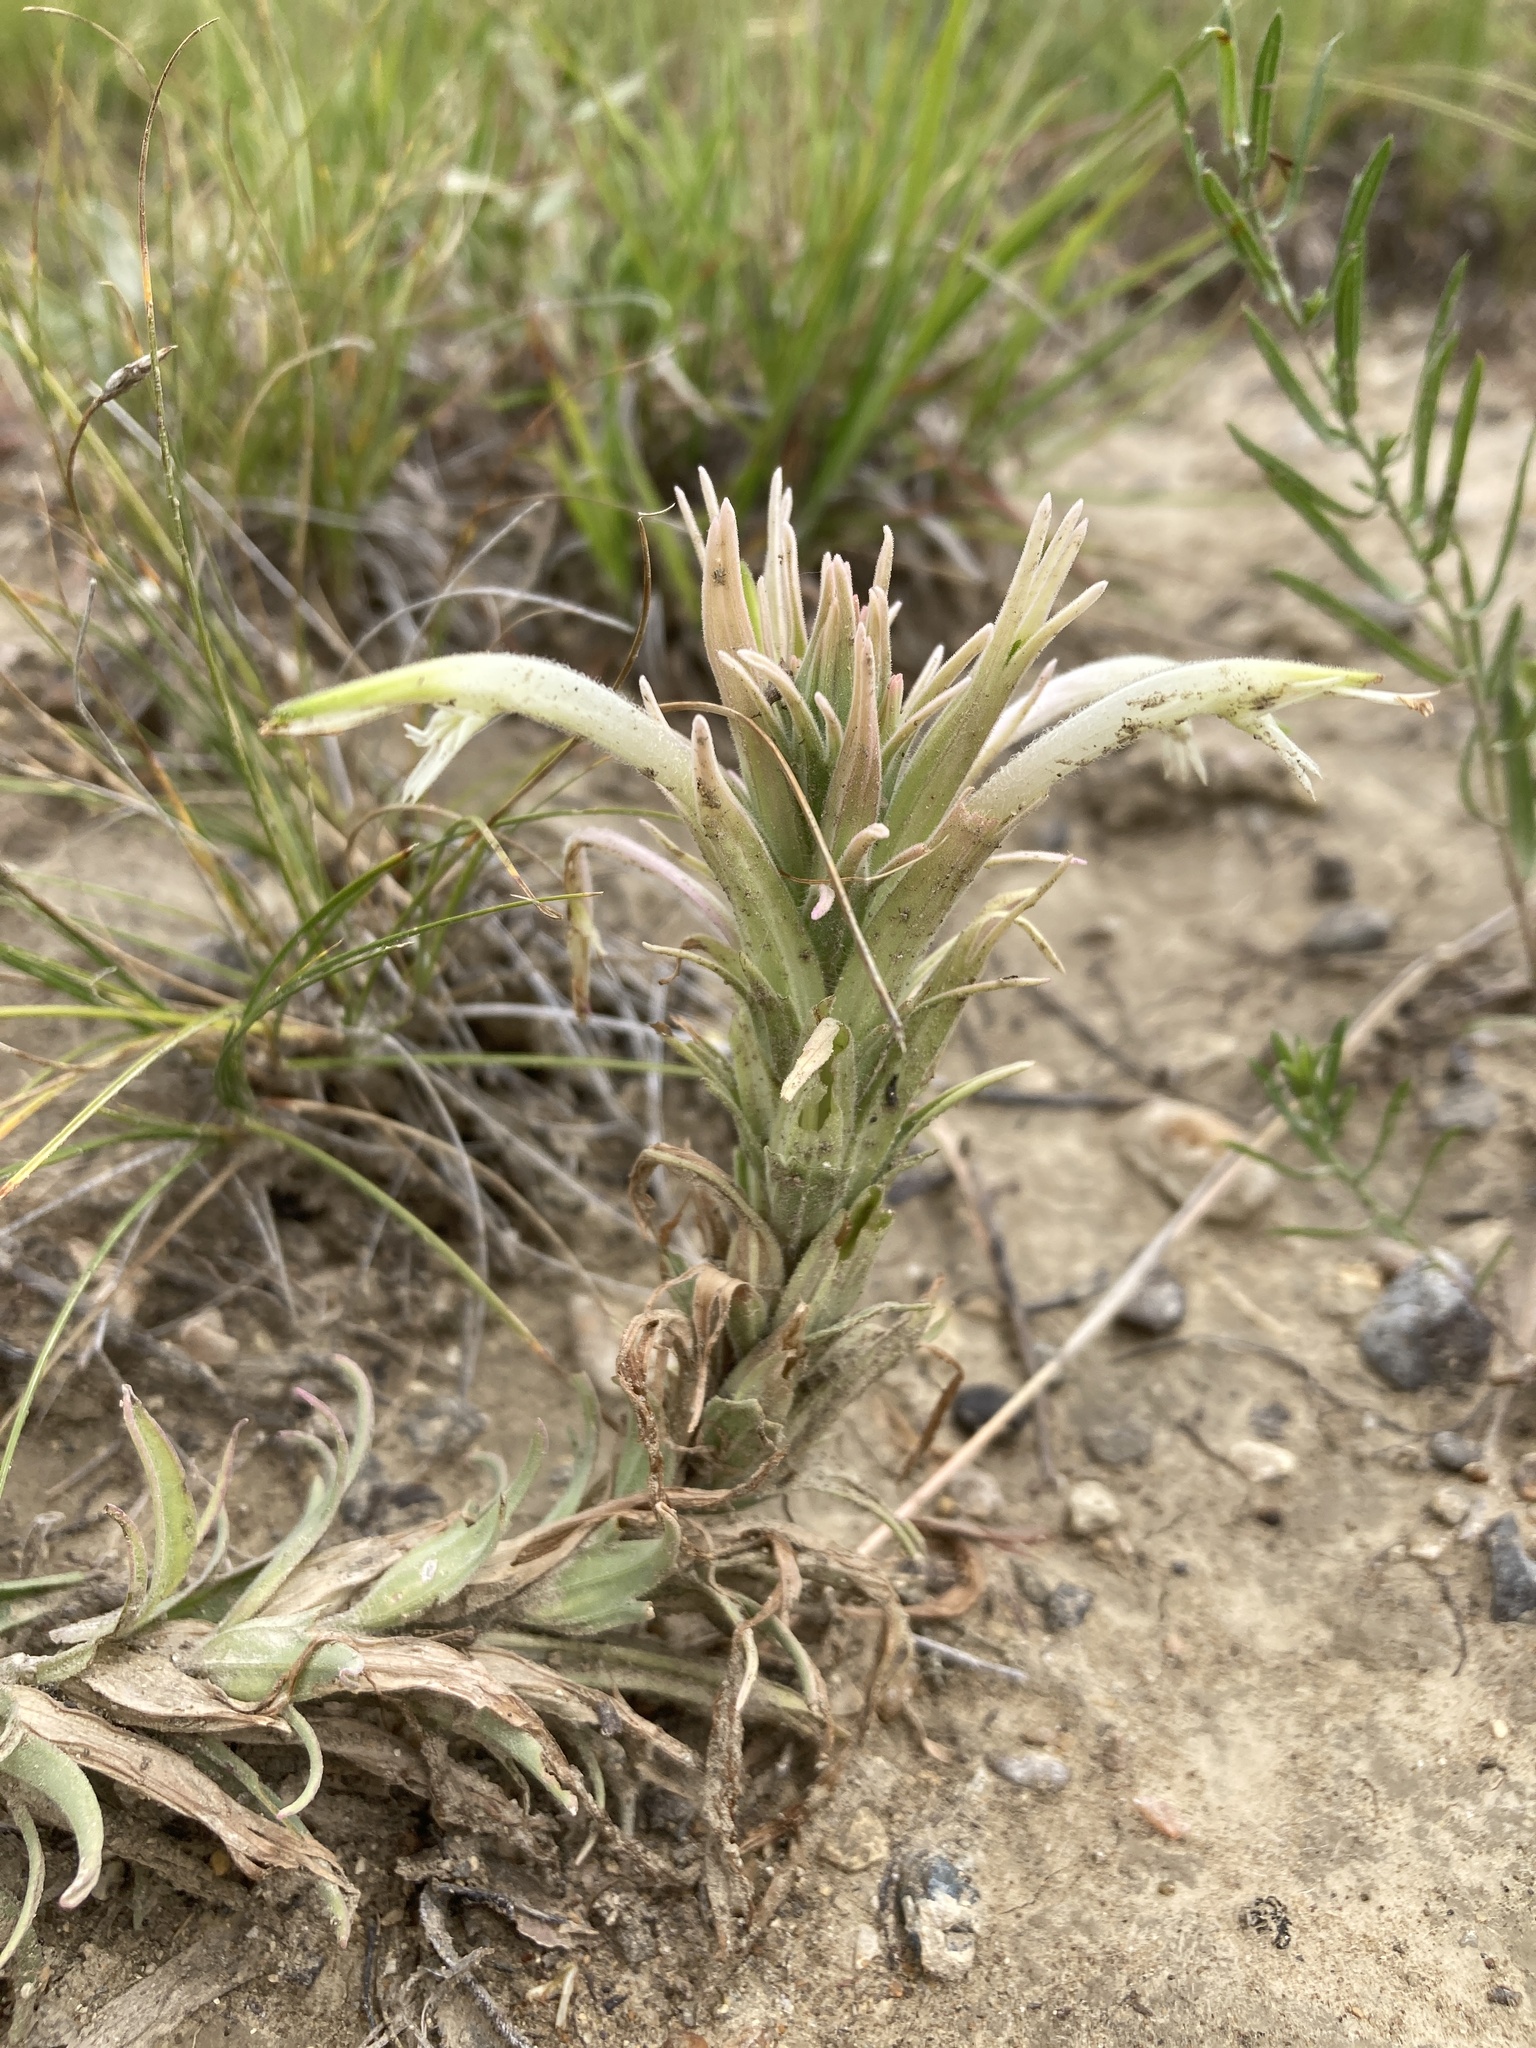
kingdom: Plantae
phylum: Tracheophyta
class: Magnoliopsida
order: Lamiales
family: Orobanchaceae
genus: Castilleja
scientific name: Castilleja sessiliflora
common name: Downy paintbrush
